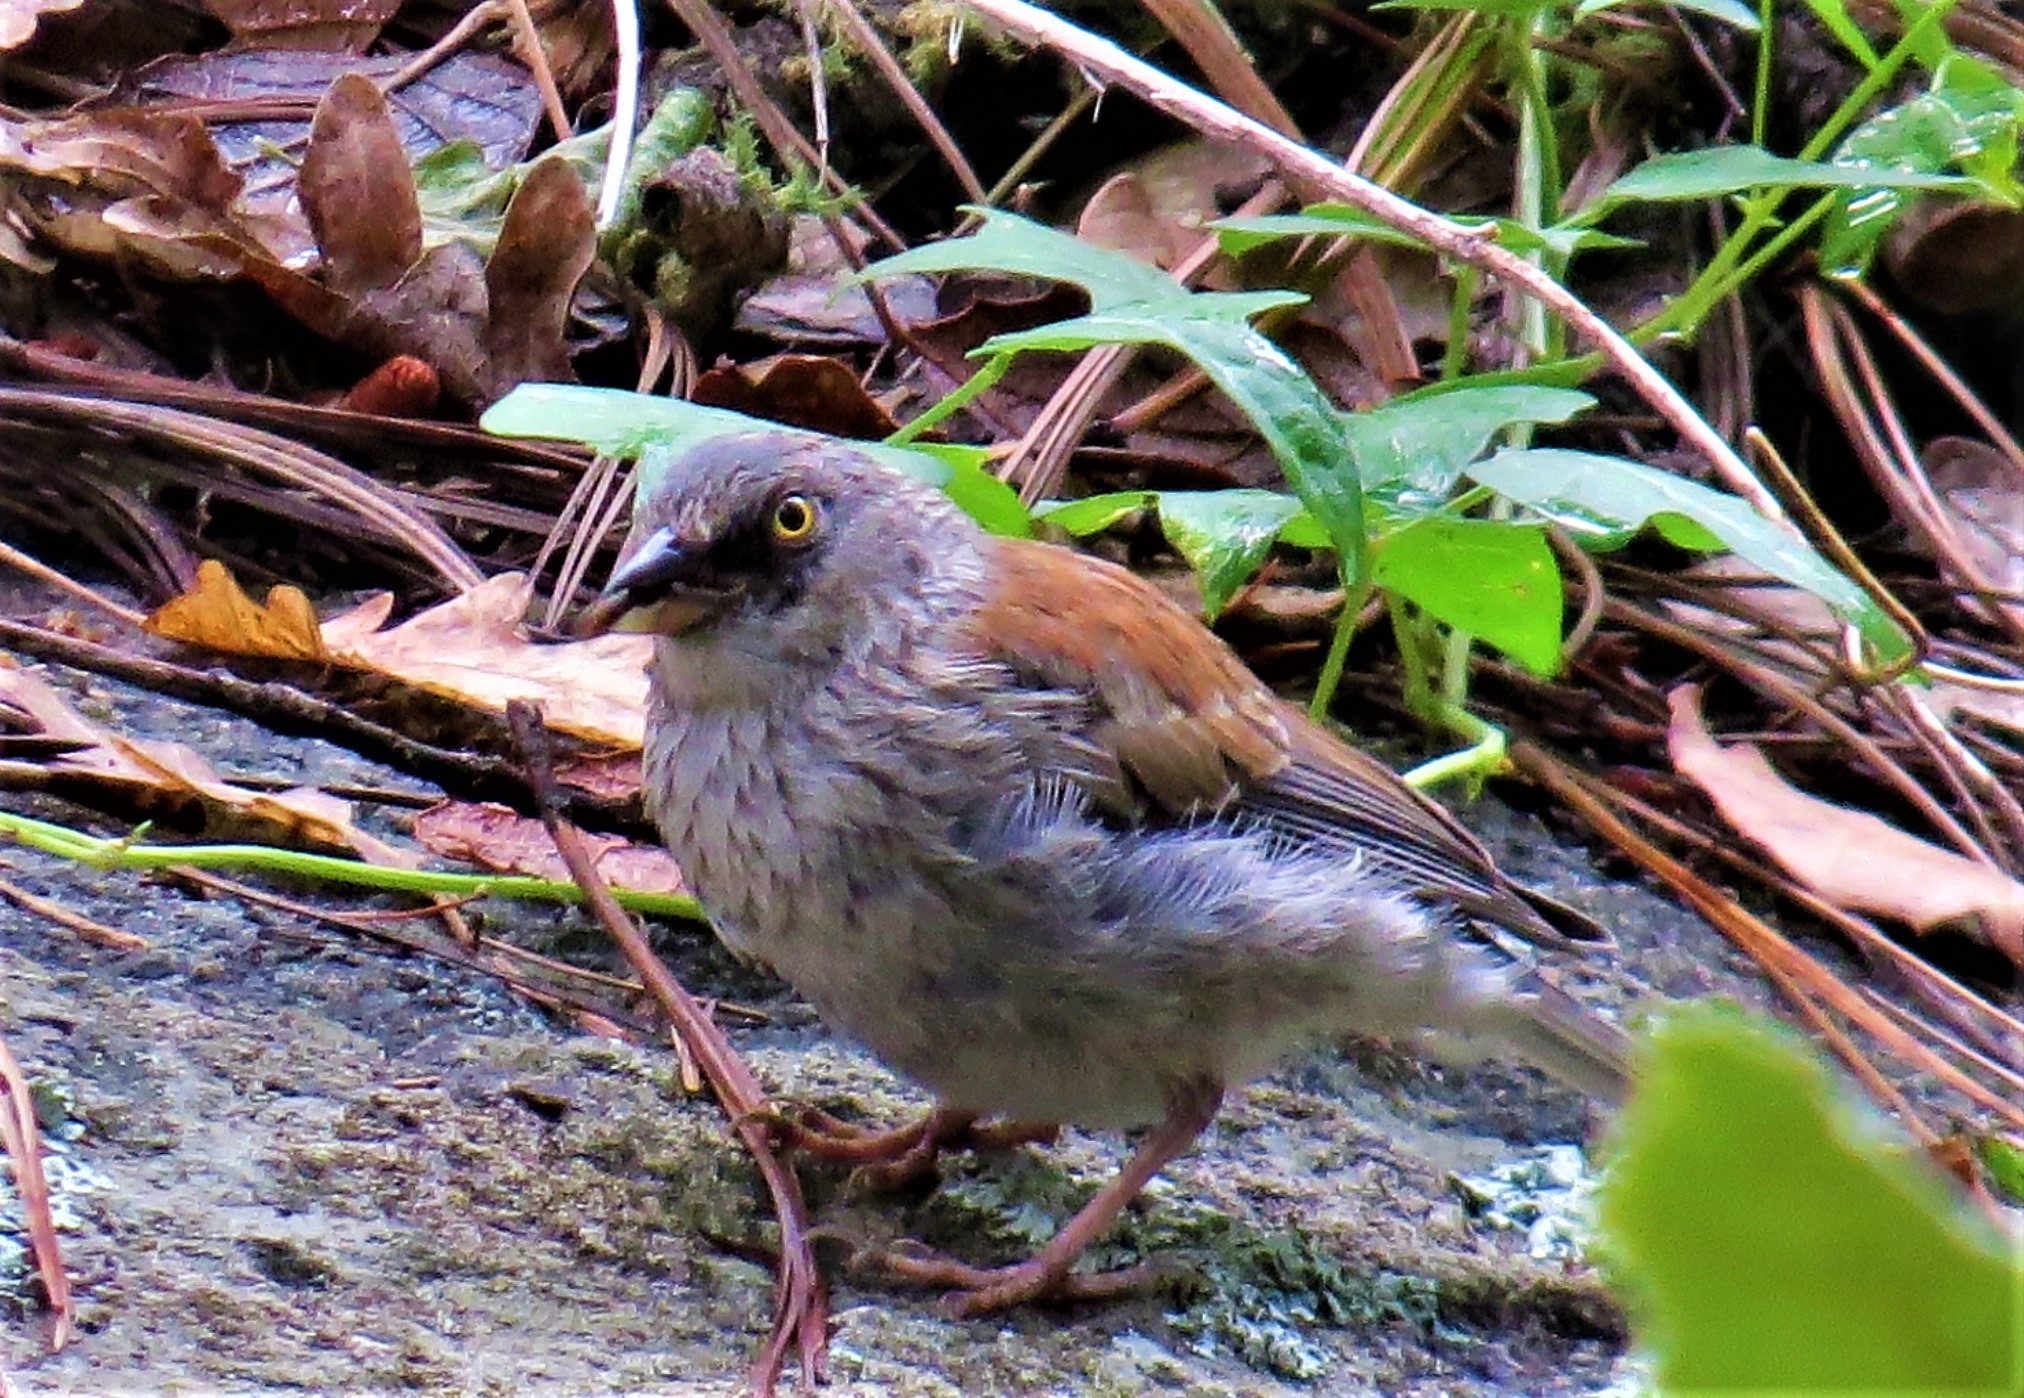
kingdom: Animalia
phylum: Chordata
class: Aves
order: Passeriformes
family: Passerellidae
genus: Junco
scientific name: Junco phaeonotus
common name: Yellow-eyed junco
